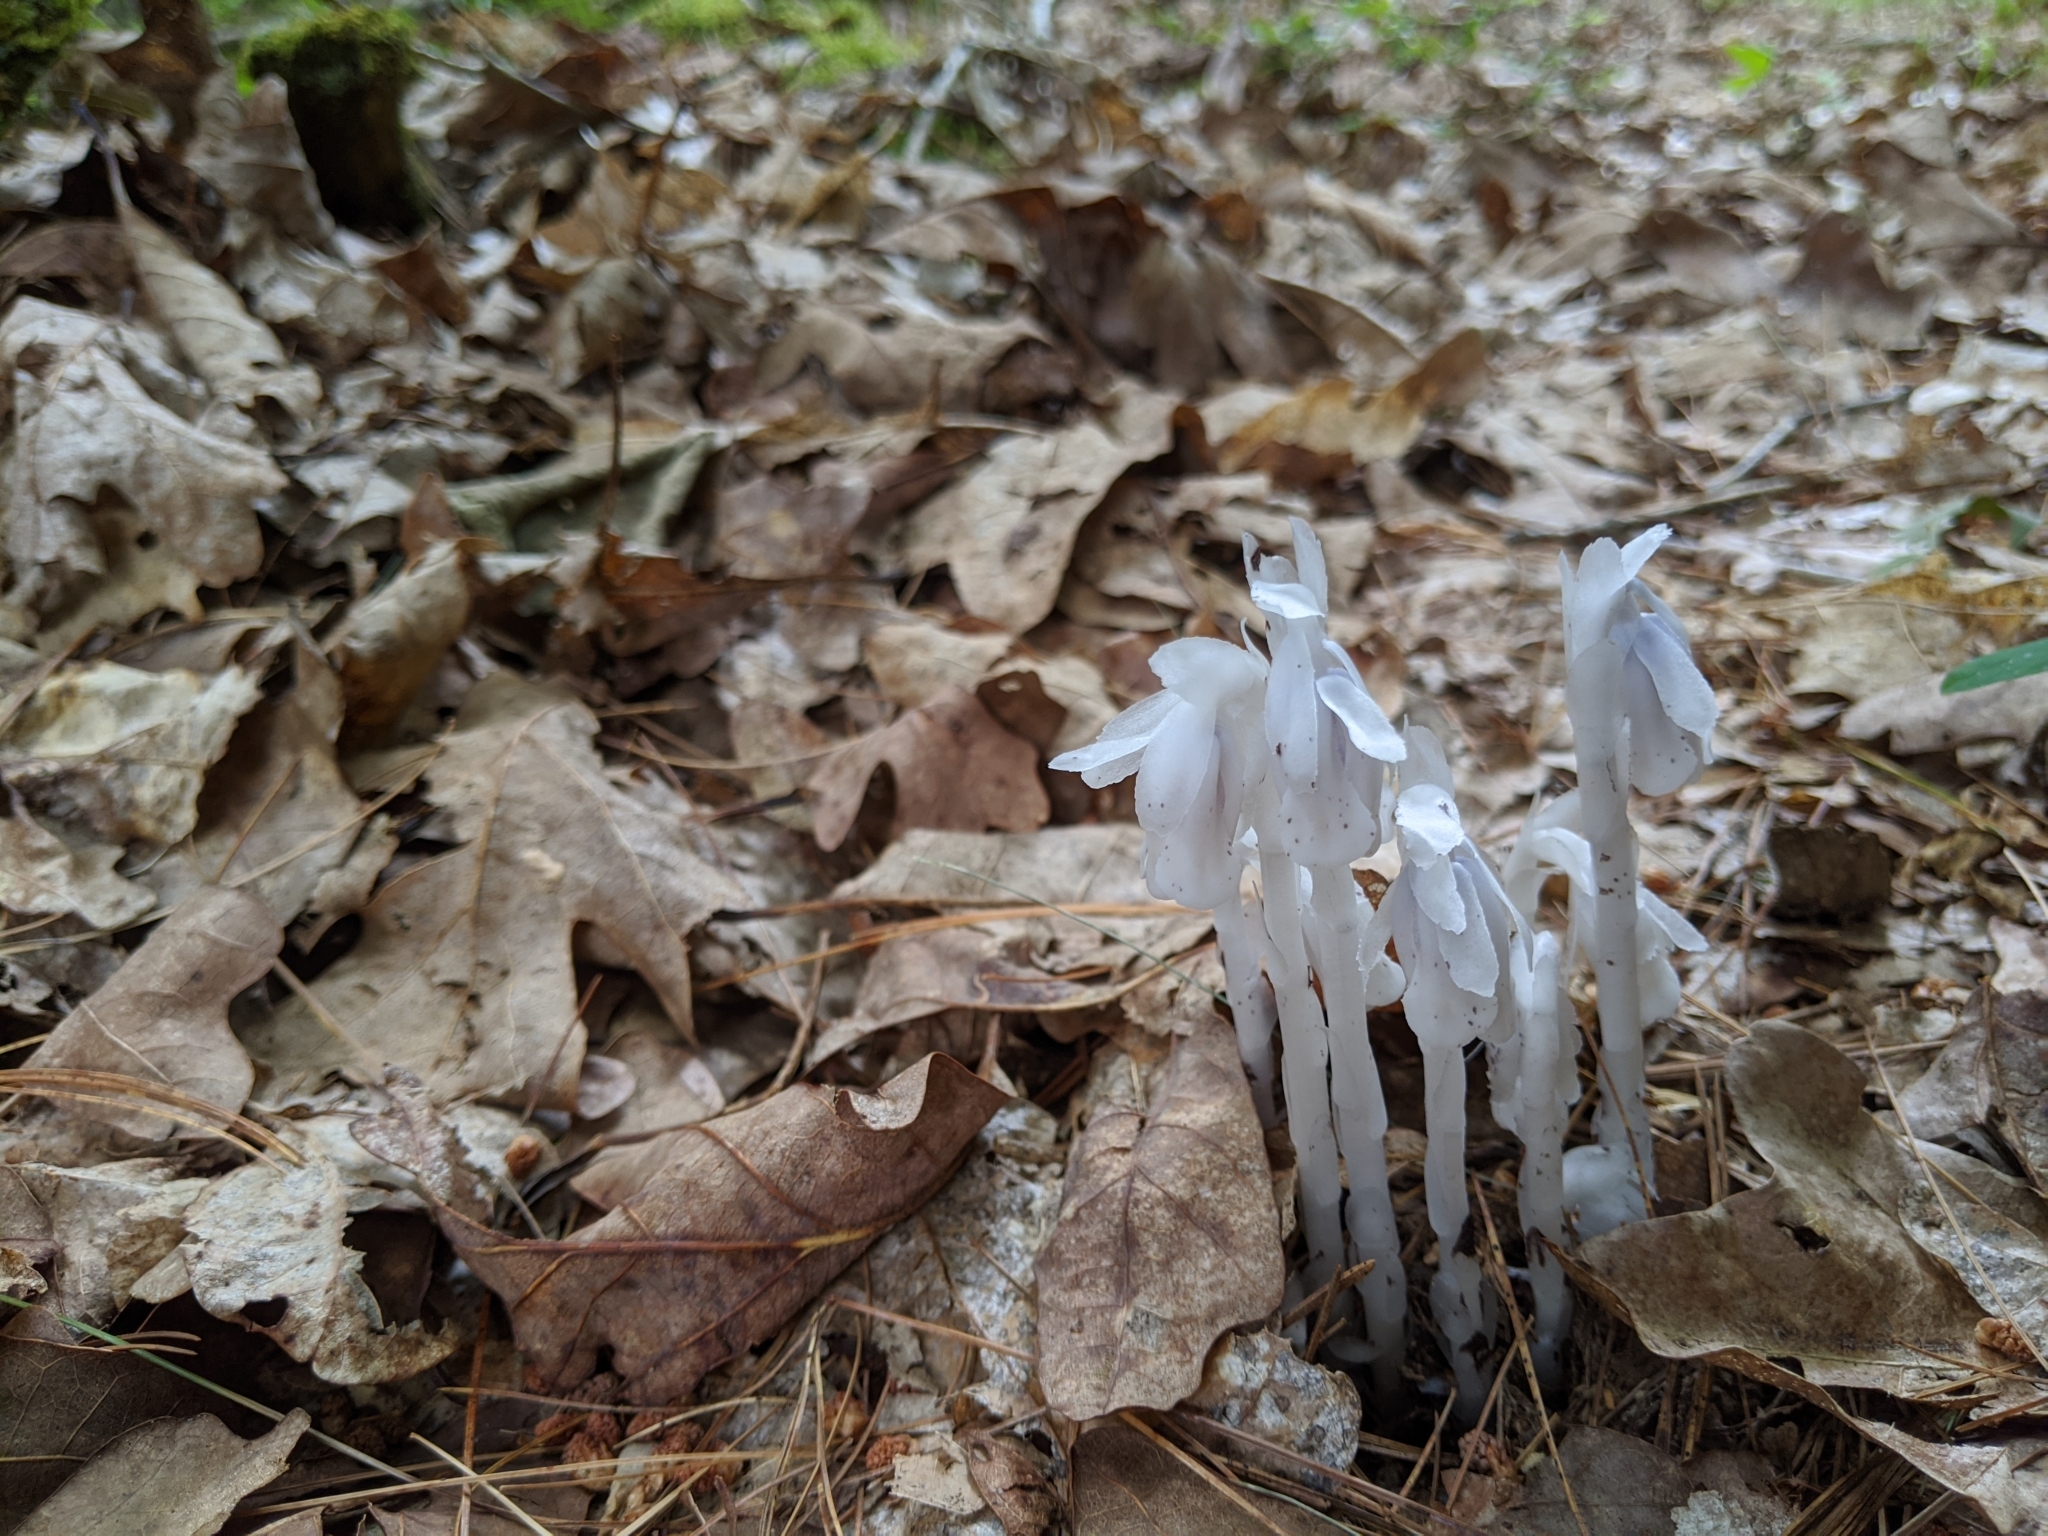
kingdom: Plantae
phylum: Tracheophyta
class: Magnoliopsida
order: Ericales
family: Ericaceae
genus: Monotropa
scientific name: Monotropa uniflora
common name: Convulsion root
